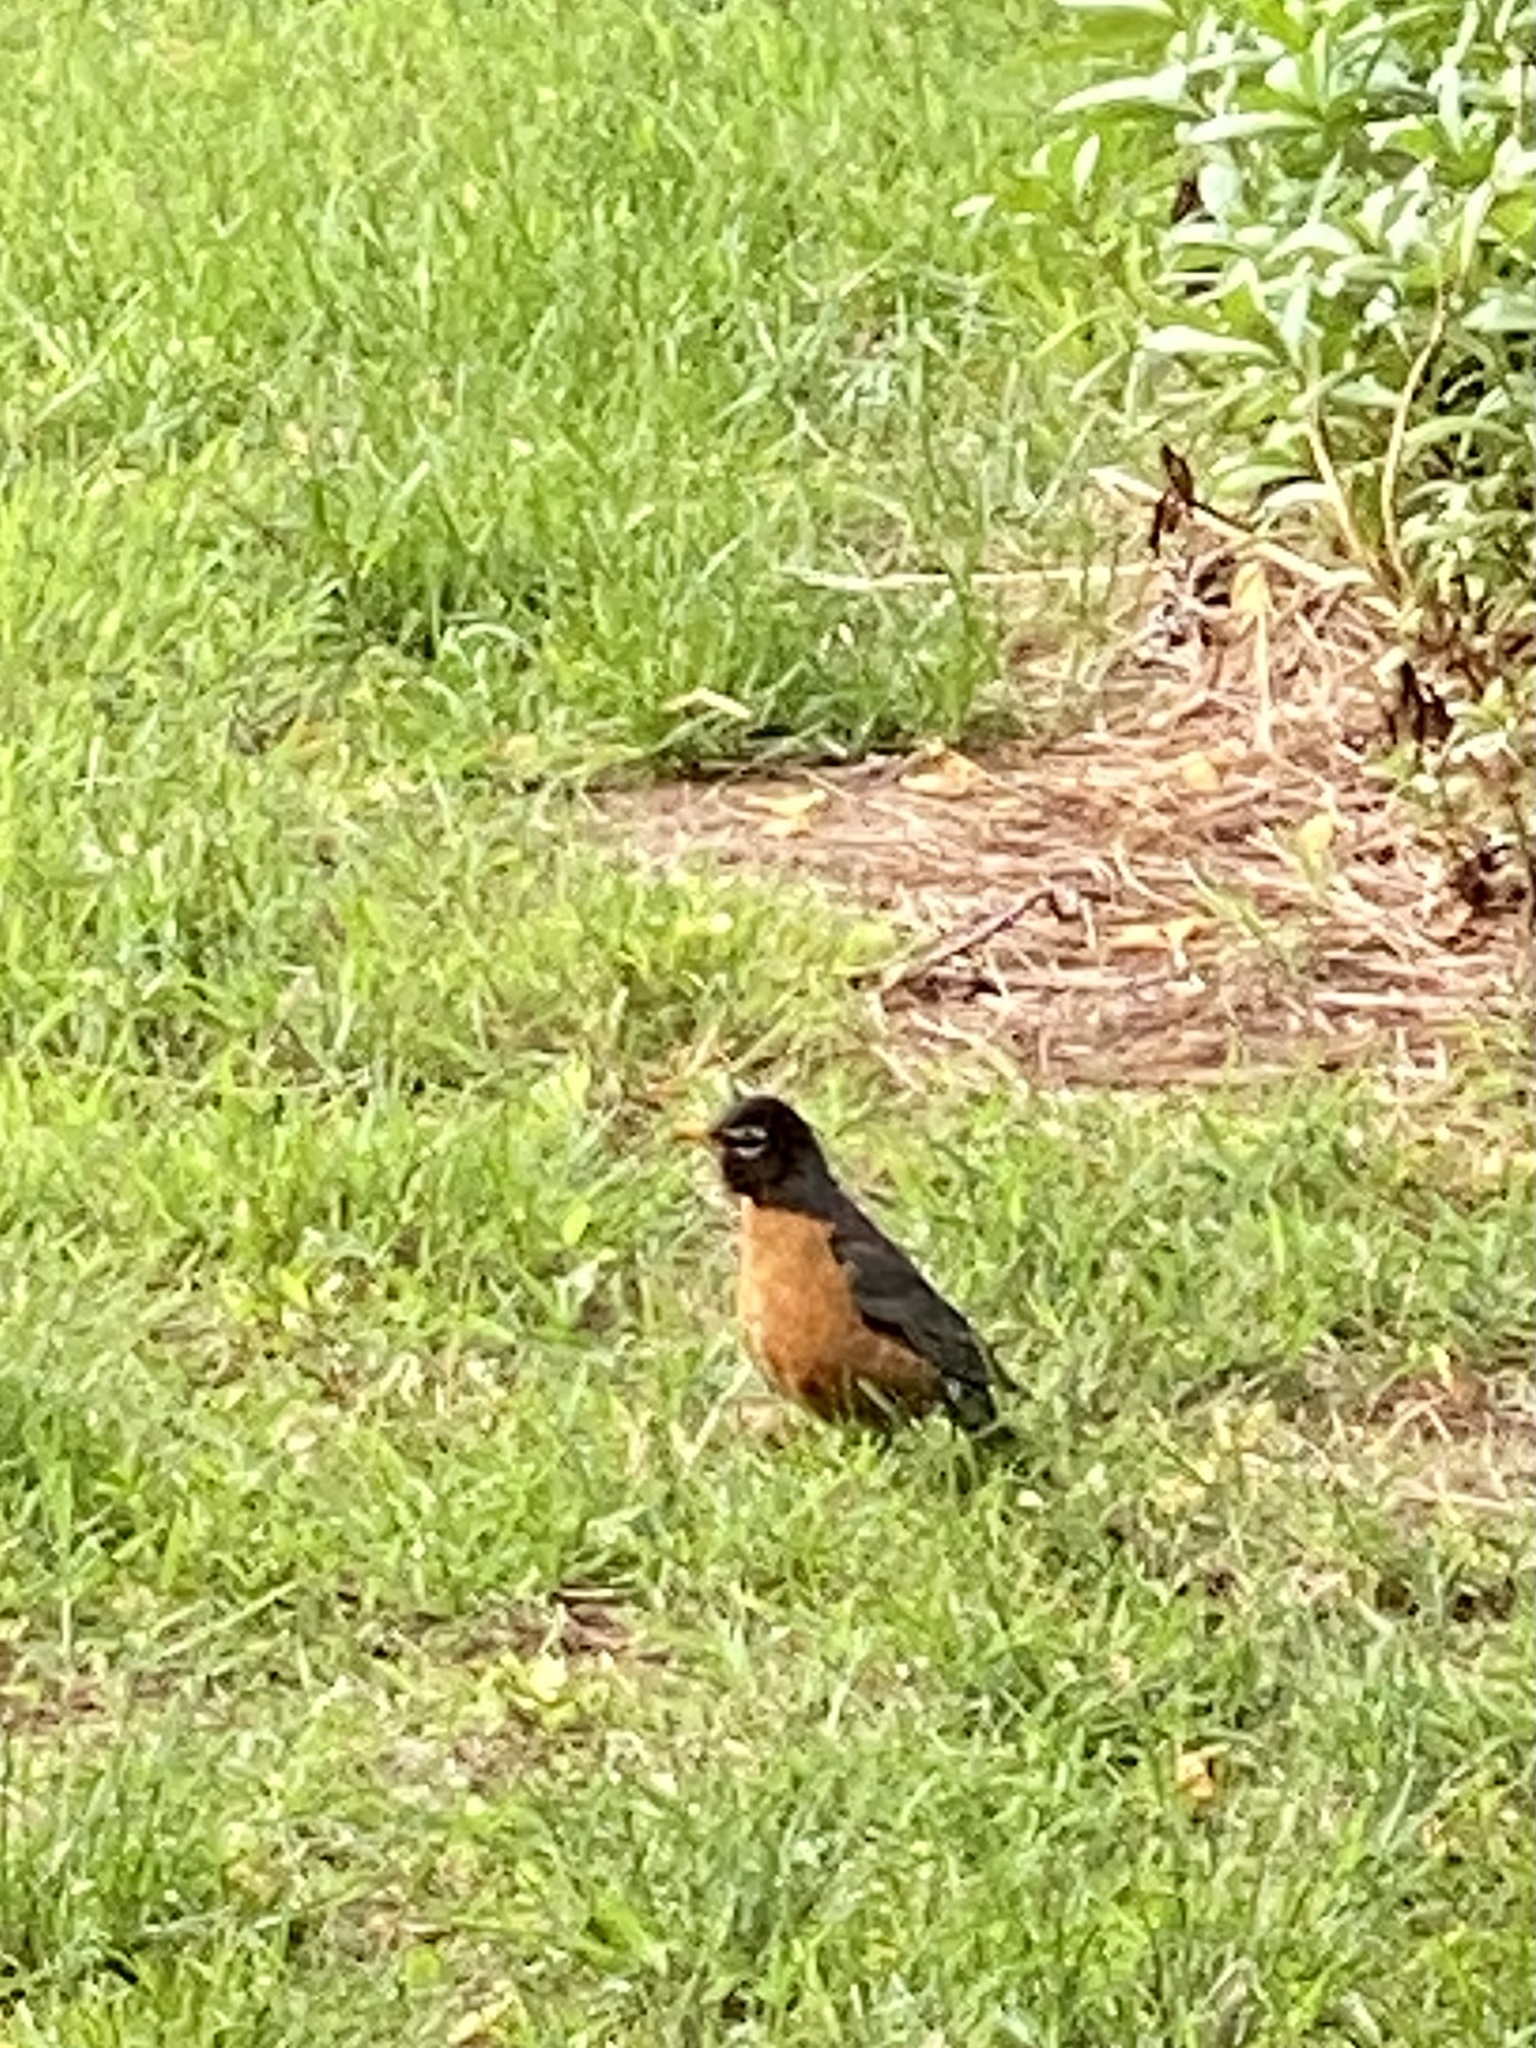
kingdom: Animalia
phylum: Chordata
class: Aves
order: Passeriformes
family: Turdidae
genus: Turdus
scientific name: Turdus migratorius
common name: American robin
